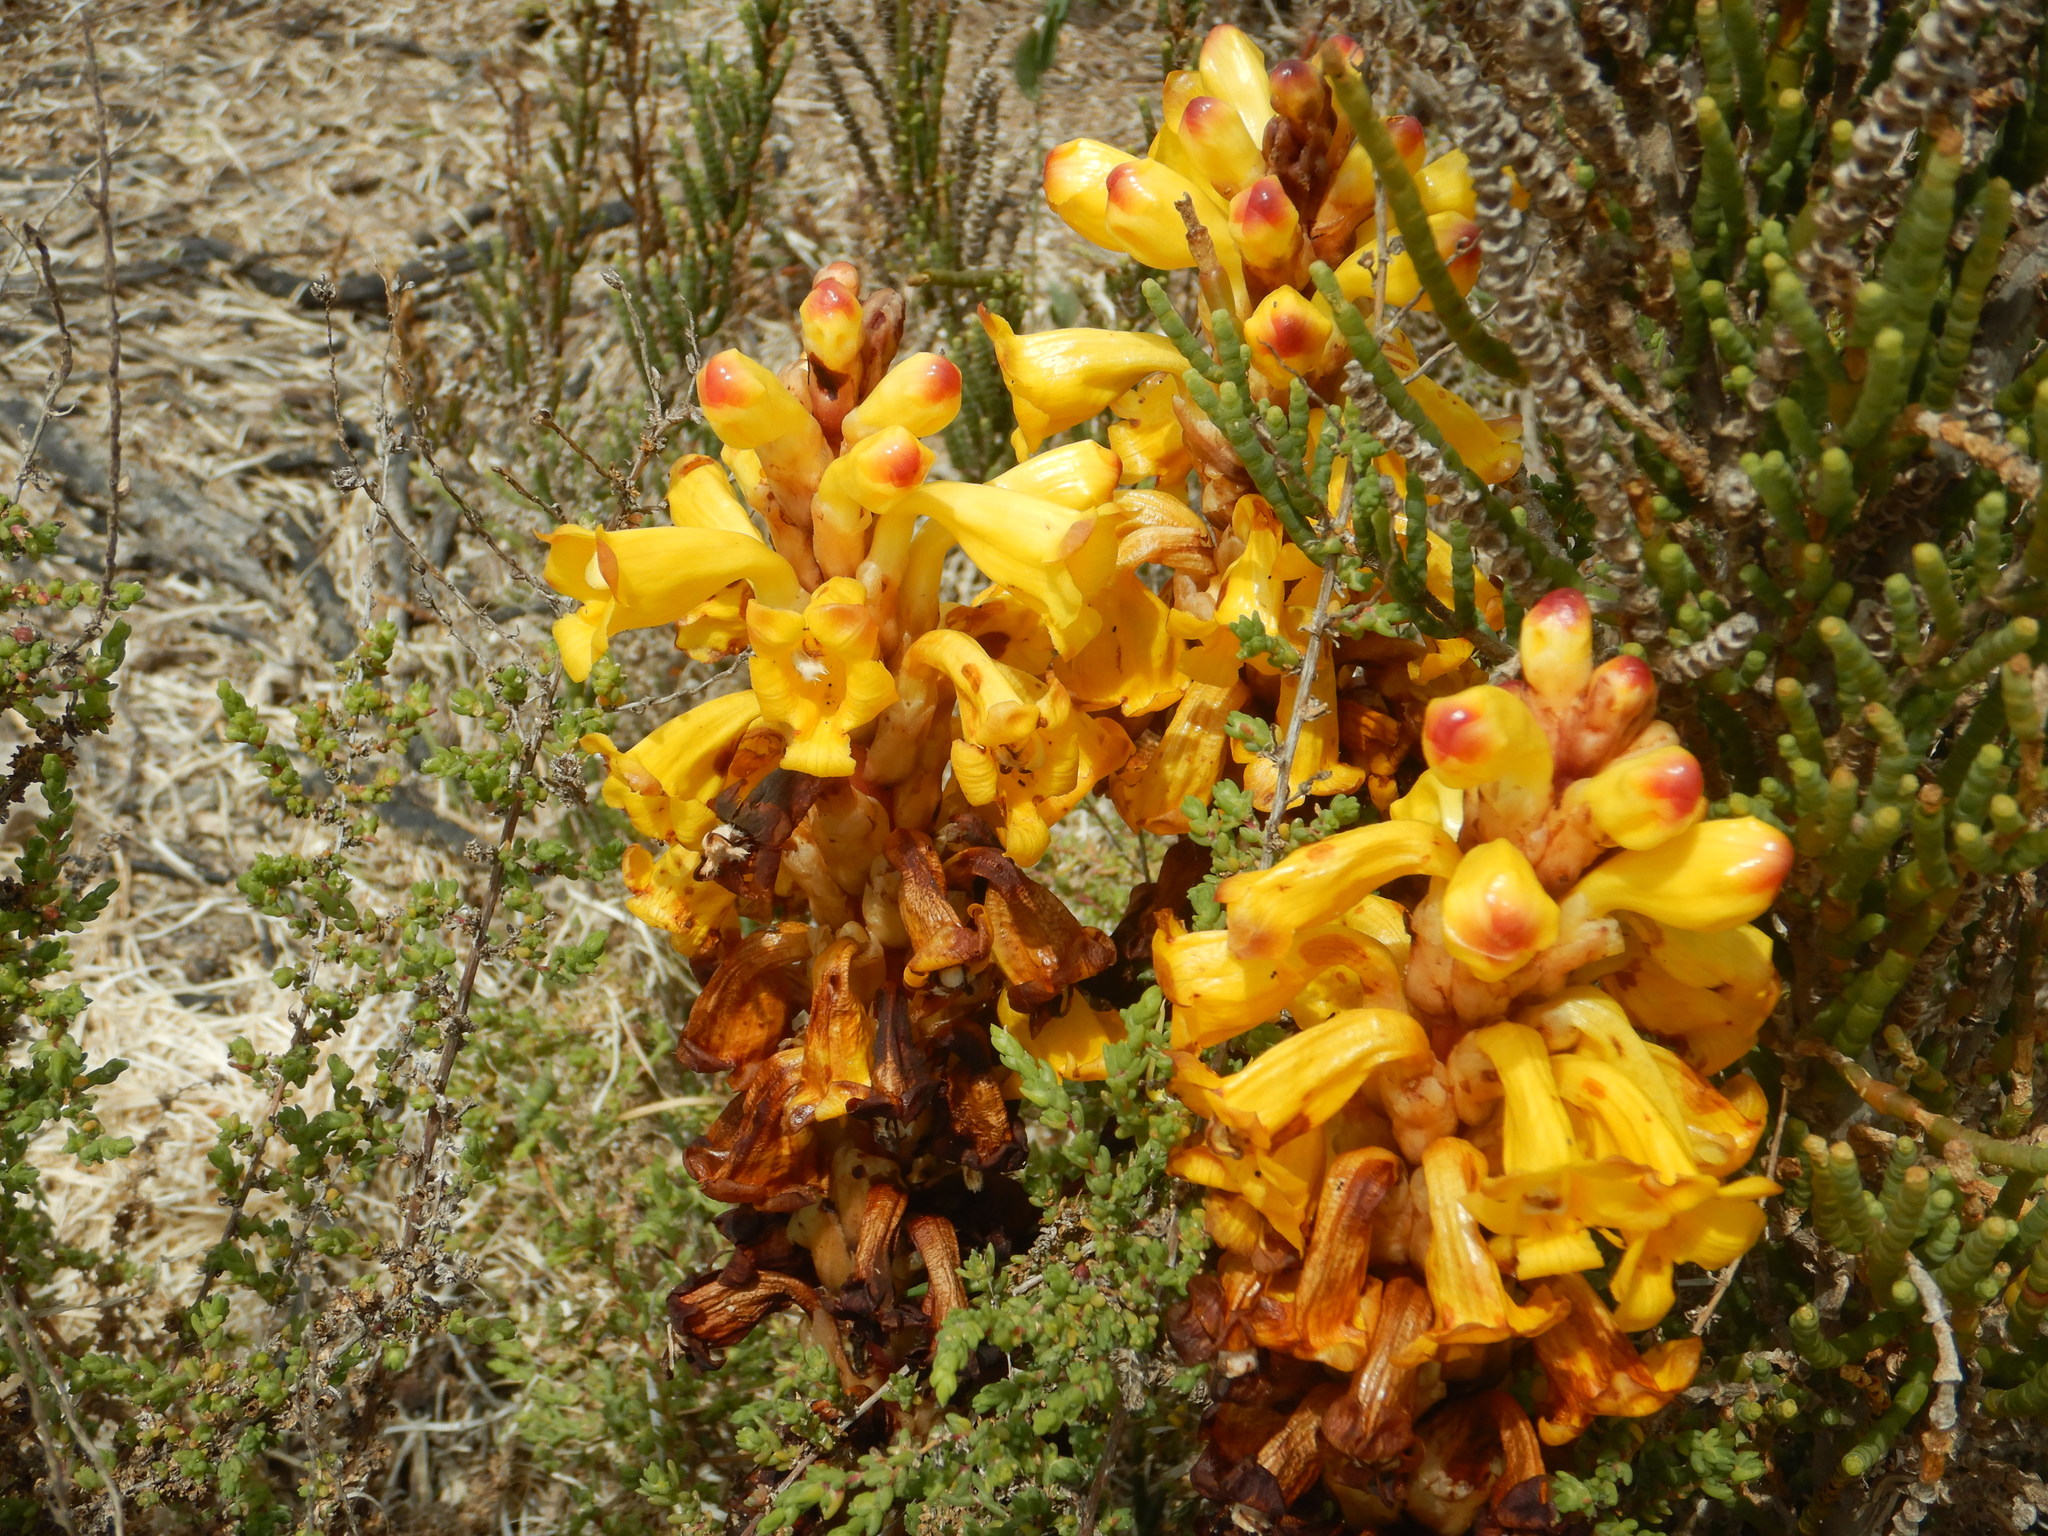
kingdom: Plantae
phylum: Tracheophyta
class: Magnoliopsida
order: Lamiales
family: Orobanchaceae
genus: Cistanche
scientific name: Cistanche phelypaea
